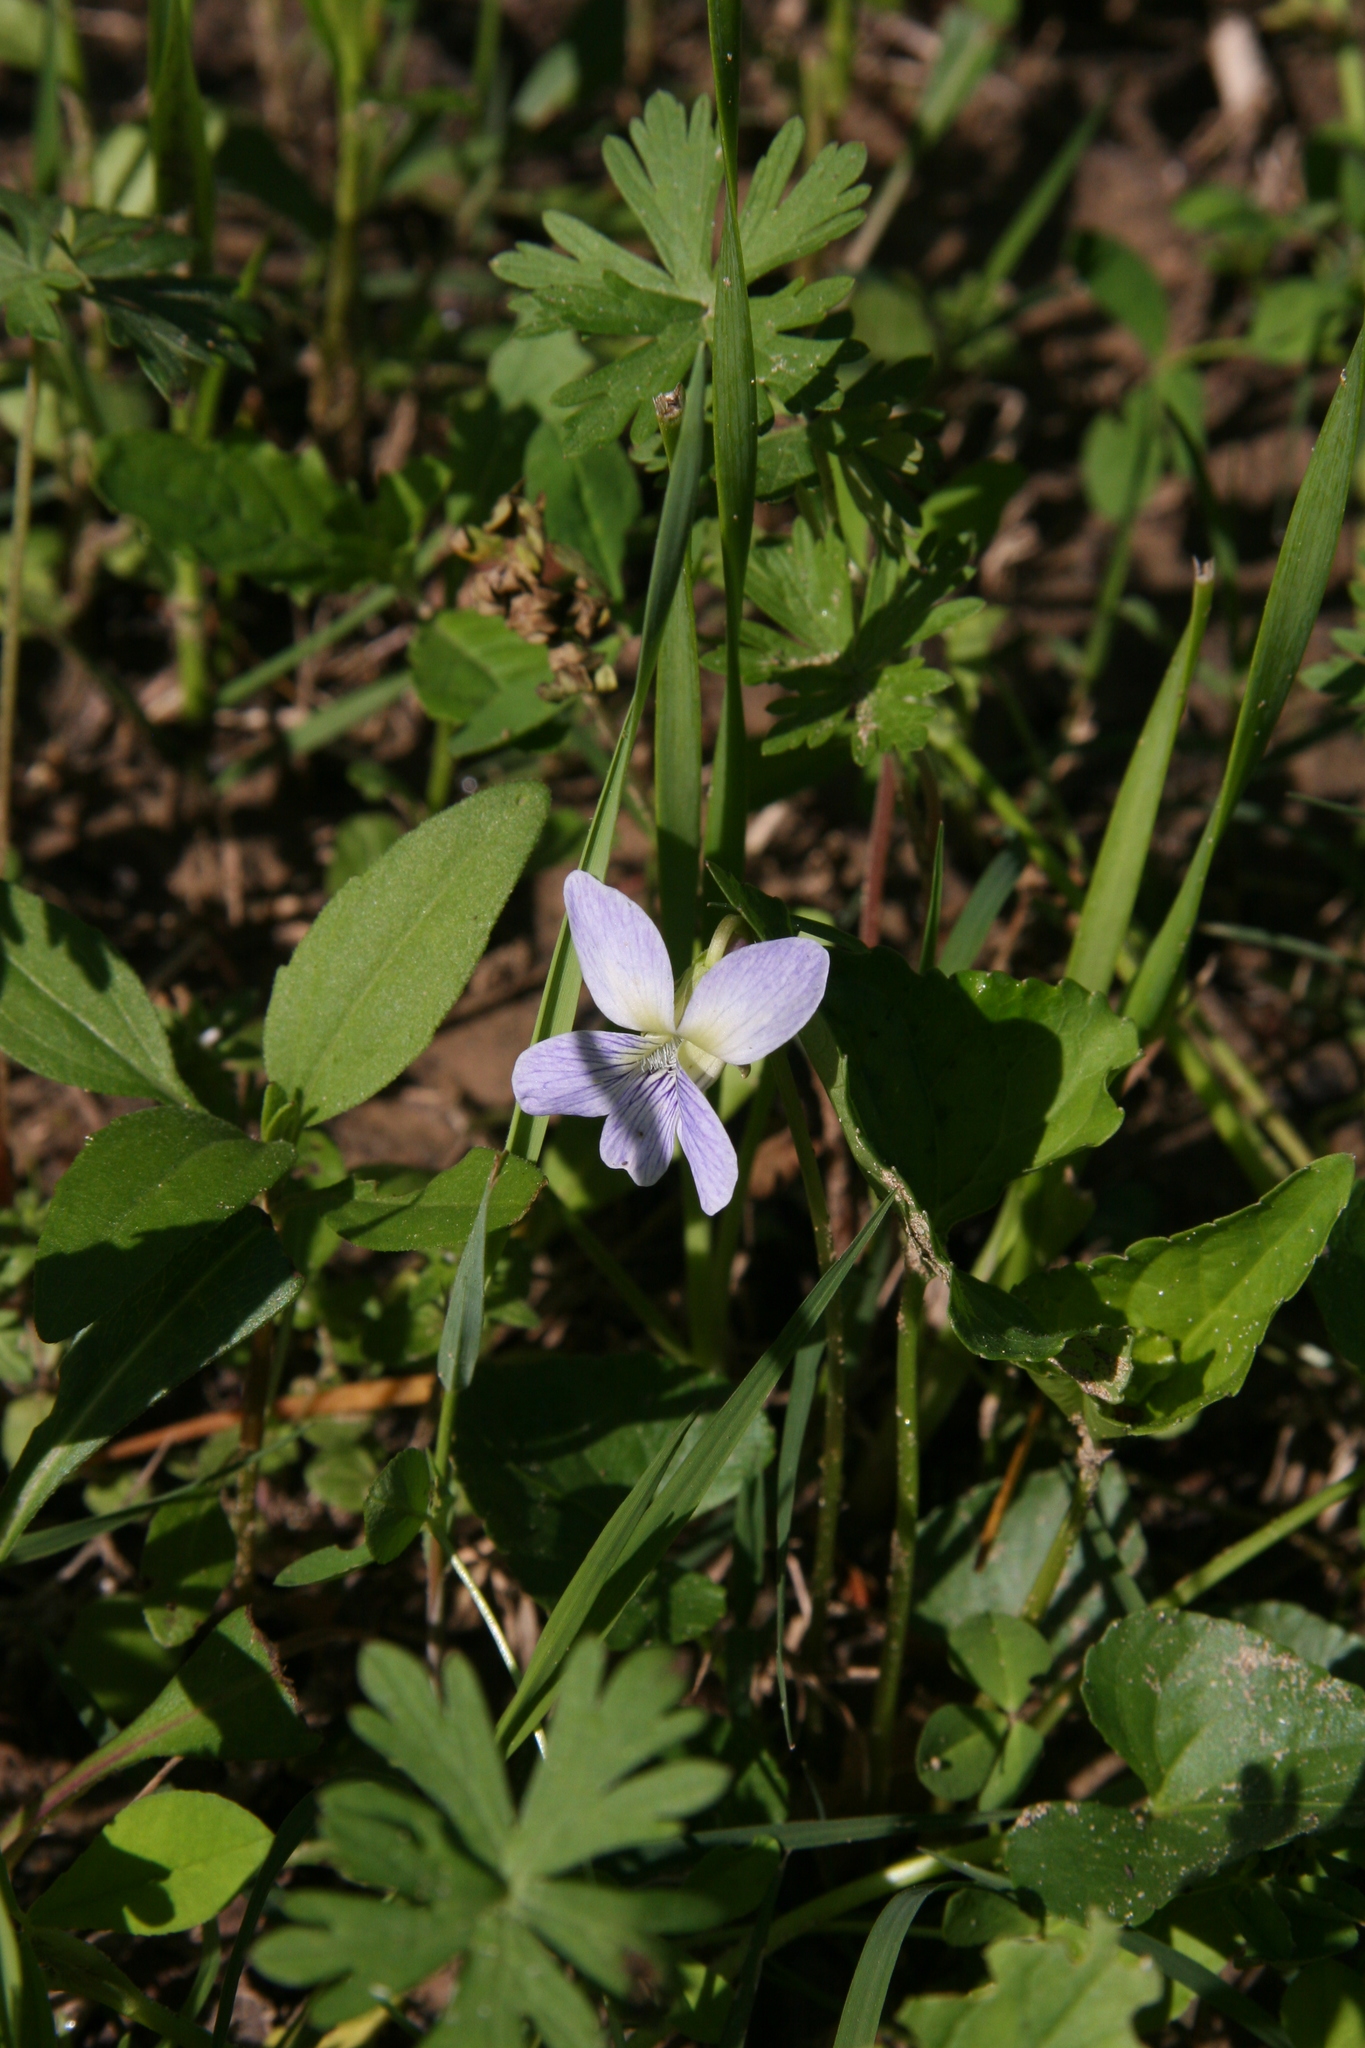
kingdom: Plantae
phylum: Tracheophyta
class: Magnoliopsida
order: Malpighiales
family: Violaceae
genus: Viola
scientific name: Viola sororia
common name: Dooryard violet
